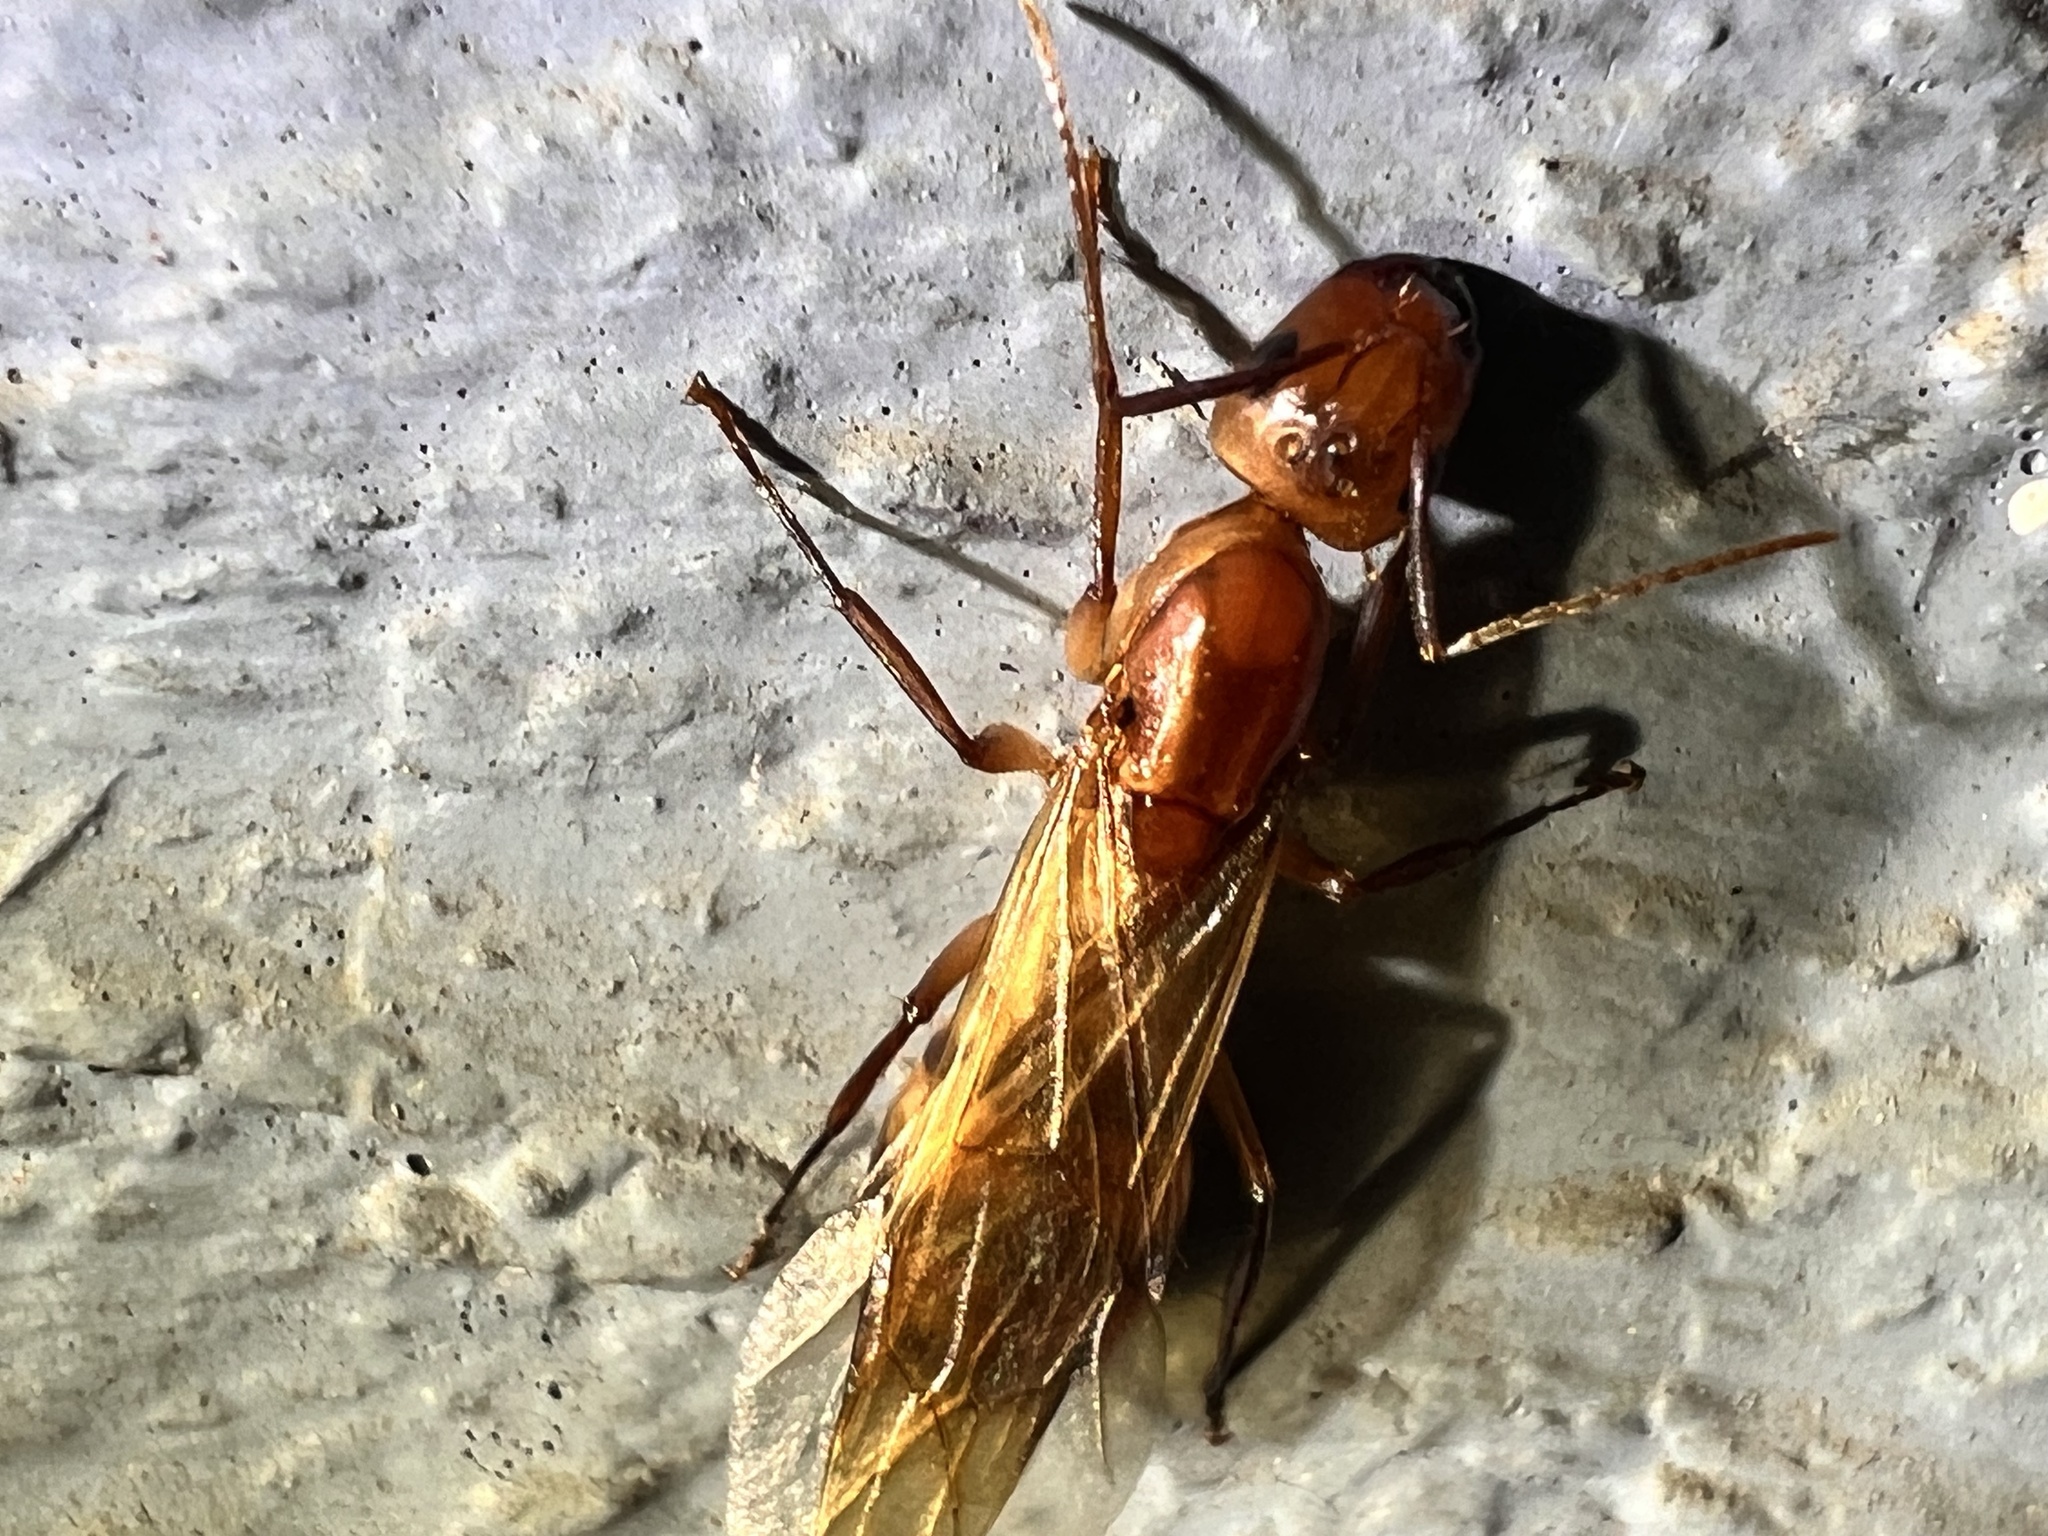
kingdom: Animalia
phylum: Arthropoda
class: Insecta
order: Hymenoptera
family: Formicidae
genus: Camponotus
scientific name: Camponotus variegatus
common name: Hawaiian carpenter ant
